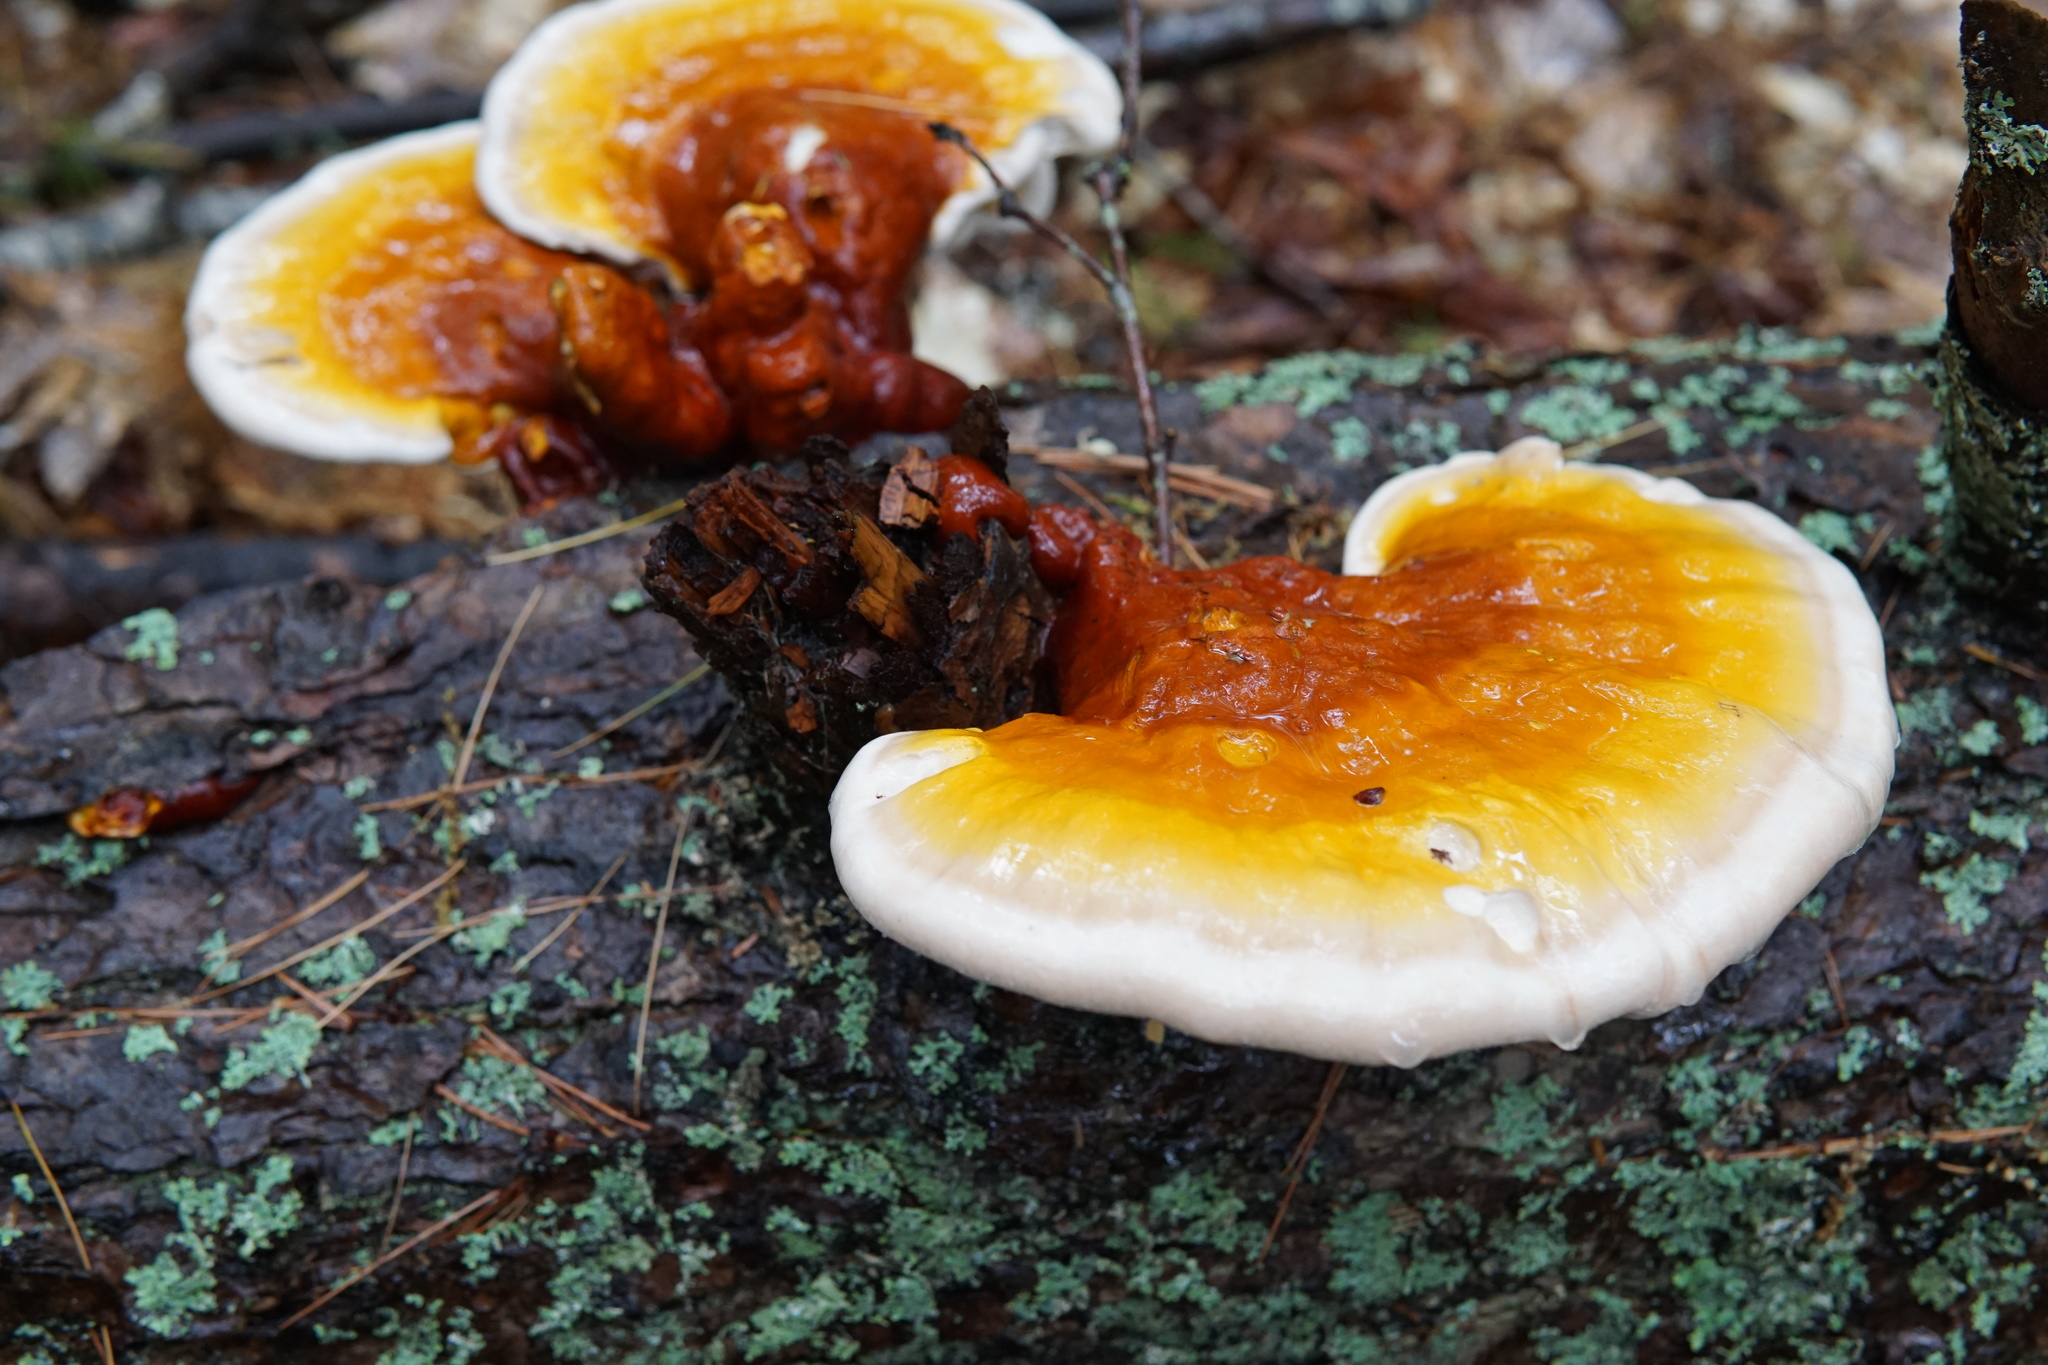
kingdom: Fungi
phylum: Basidiomycota
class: Agaricomycetes
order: Polyporales
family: Polyporaceae
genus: Ganoderma
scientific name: Ganoderma tsugae
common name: Hemlock varnish shelf
